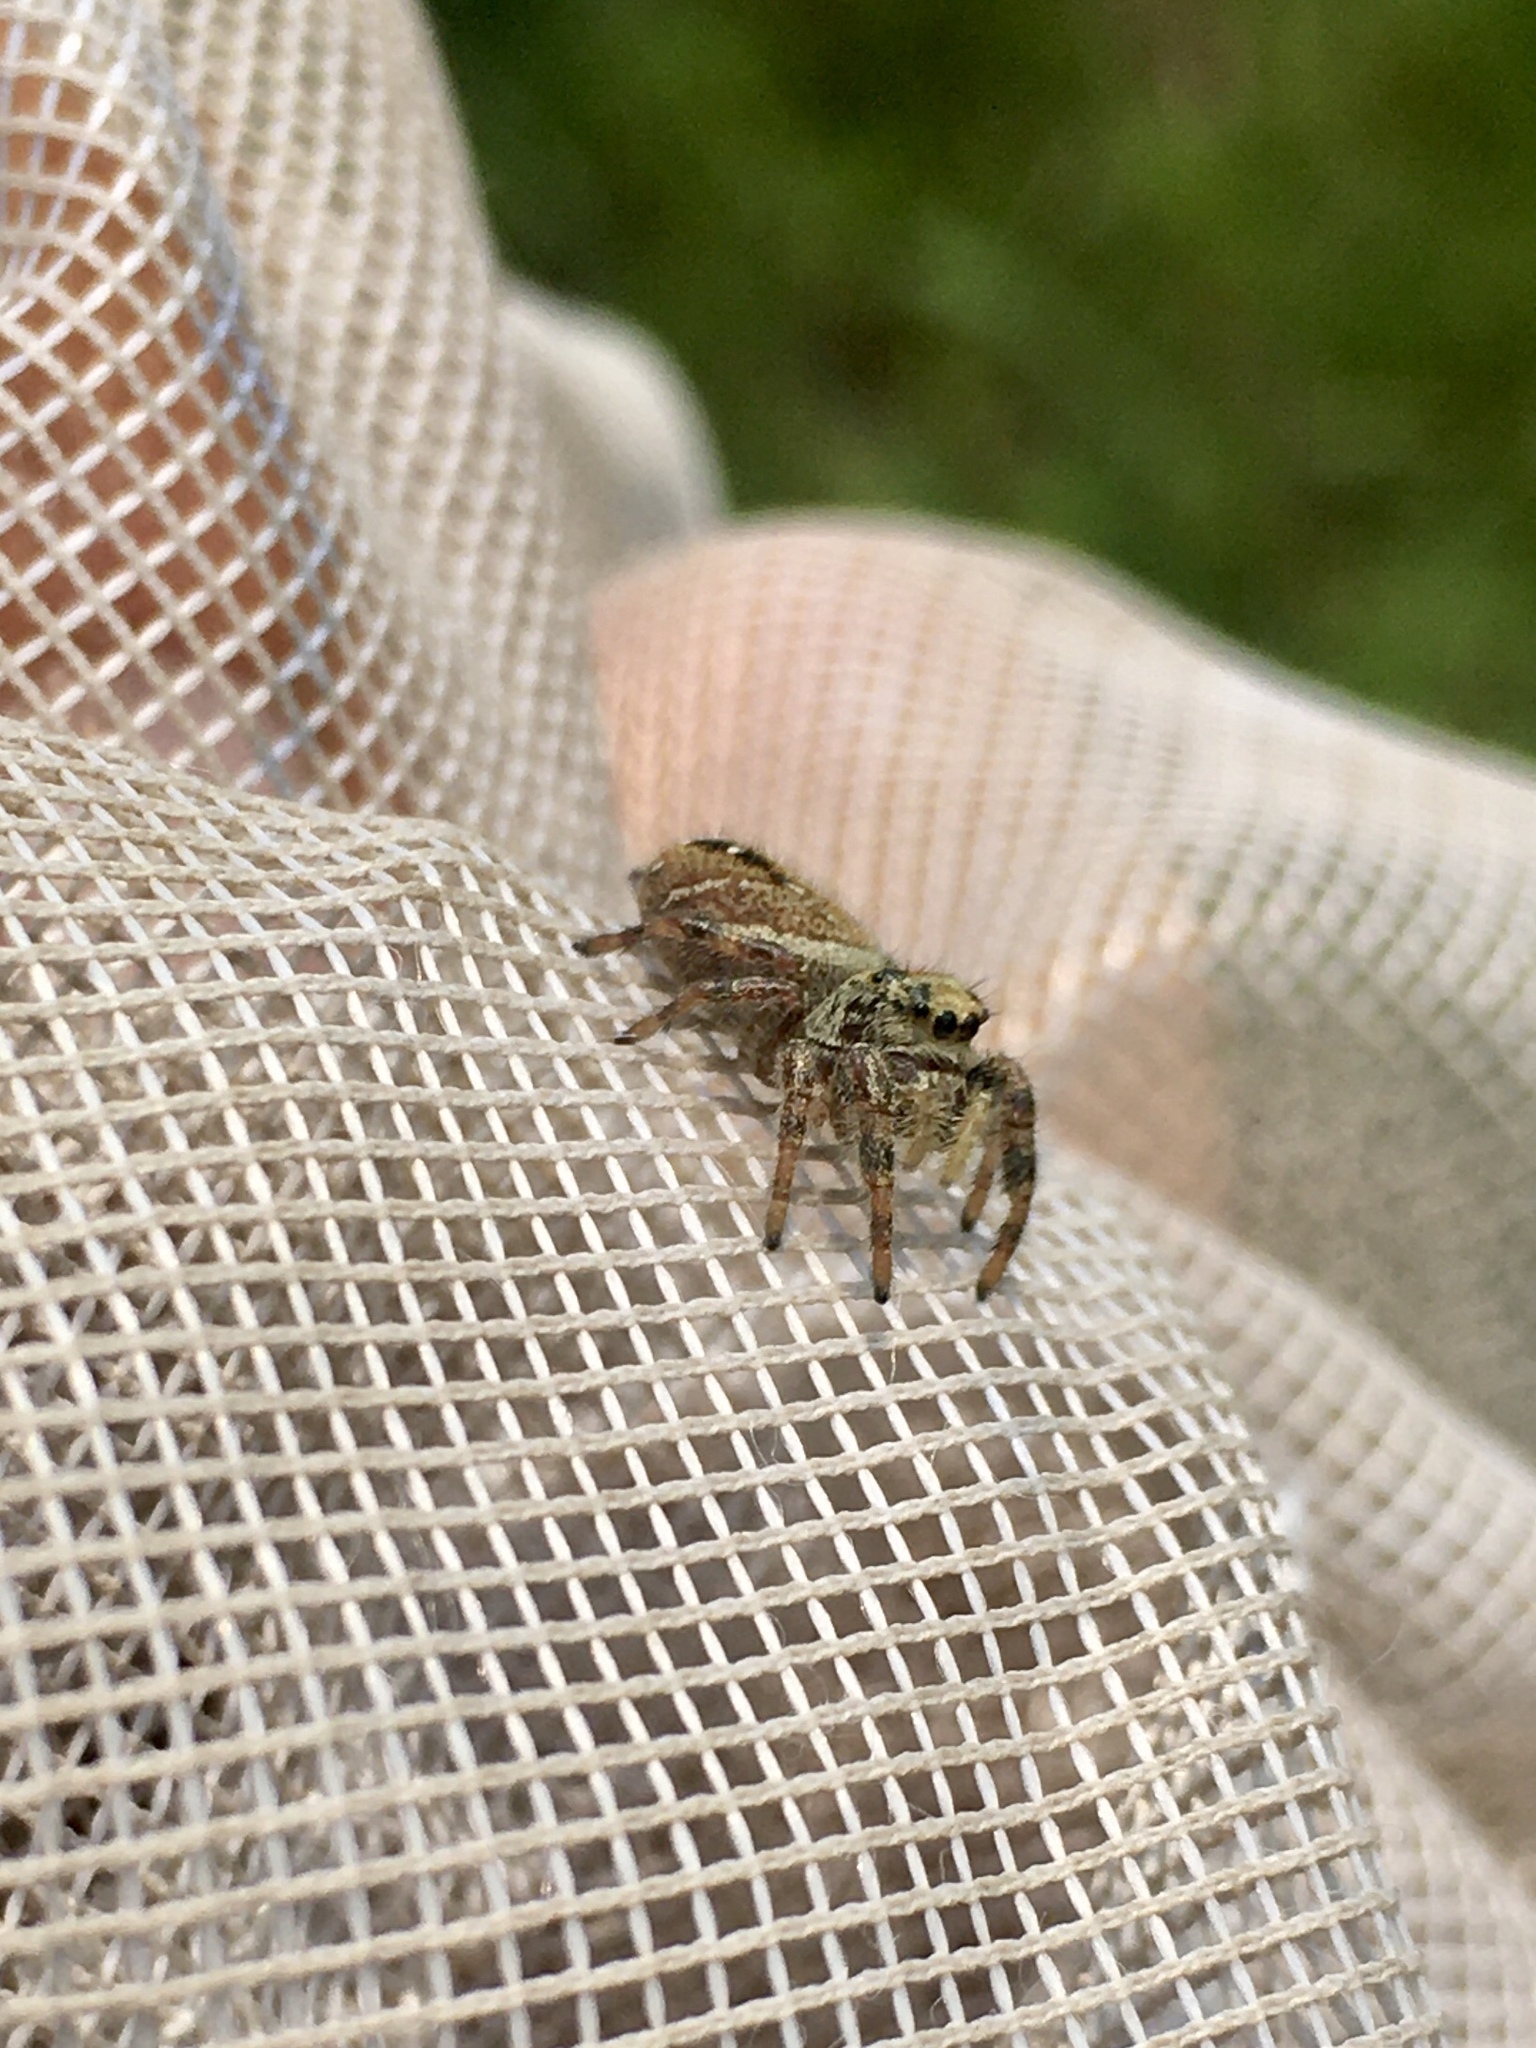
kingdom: Animalia
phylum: Arthropoda
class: Arachnida
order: Araneae
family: Salticidae
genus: Phidippus
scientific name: Phidippus clarus
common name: Brilliant jumping spider
